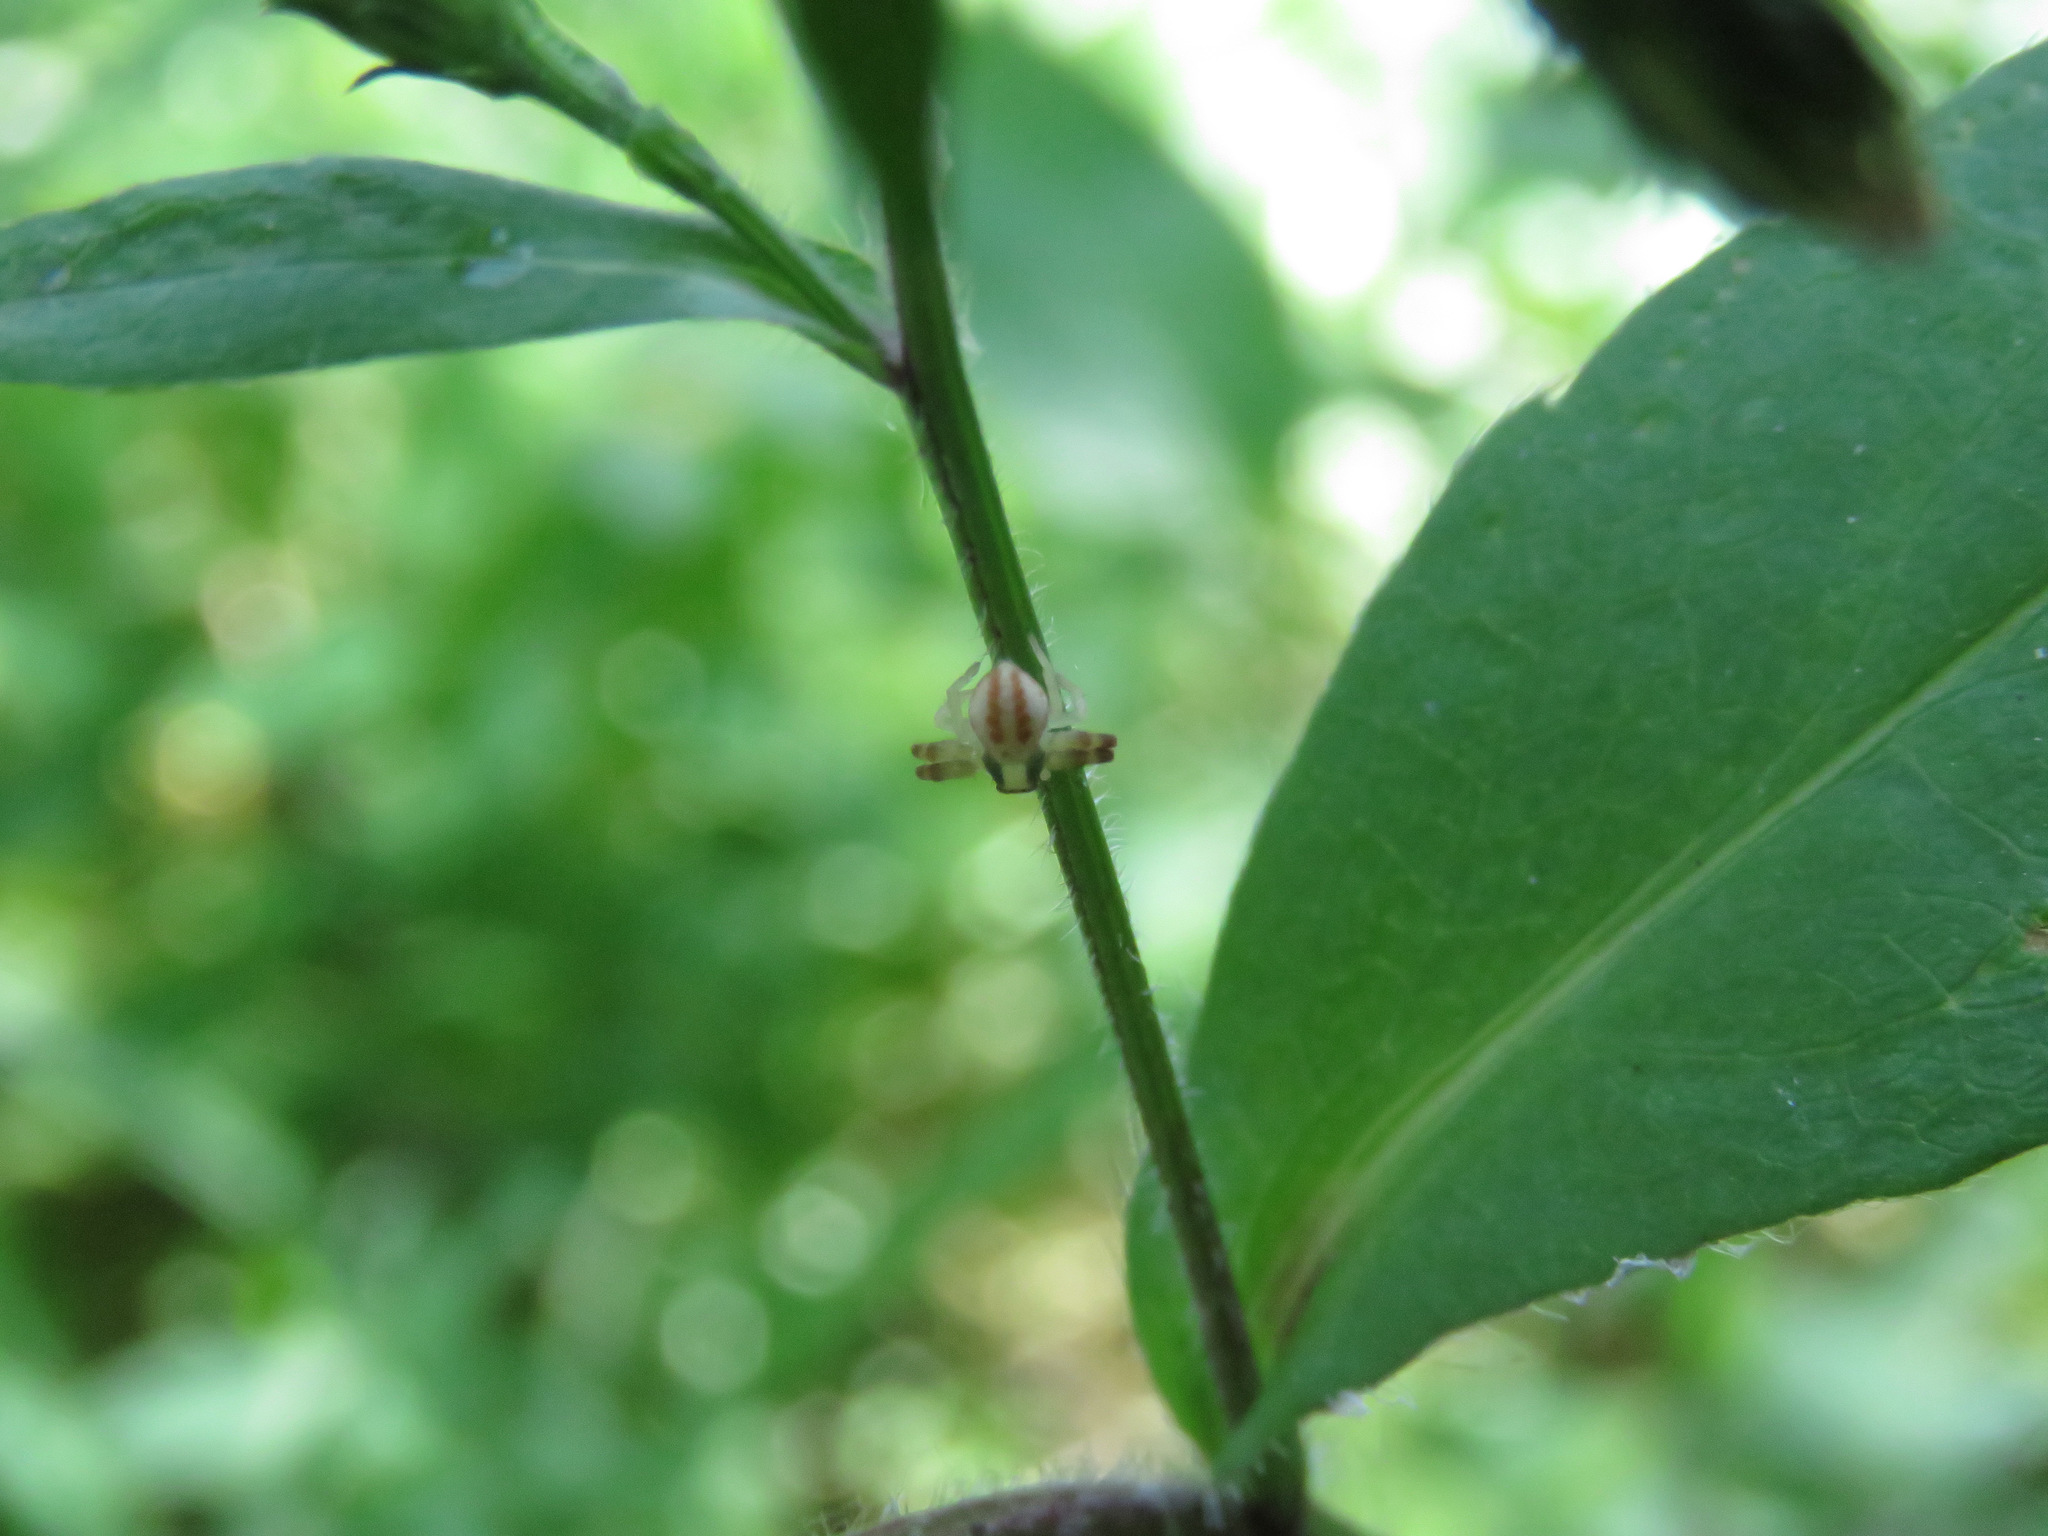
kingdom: Animalia
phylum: Arthropoda
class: Arachnida
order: Araneae
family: Thomisidae
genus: Misumena
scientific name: Misumena vatia
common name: Goldenrod crab spider
